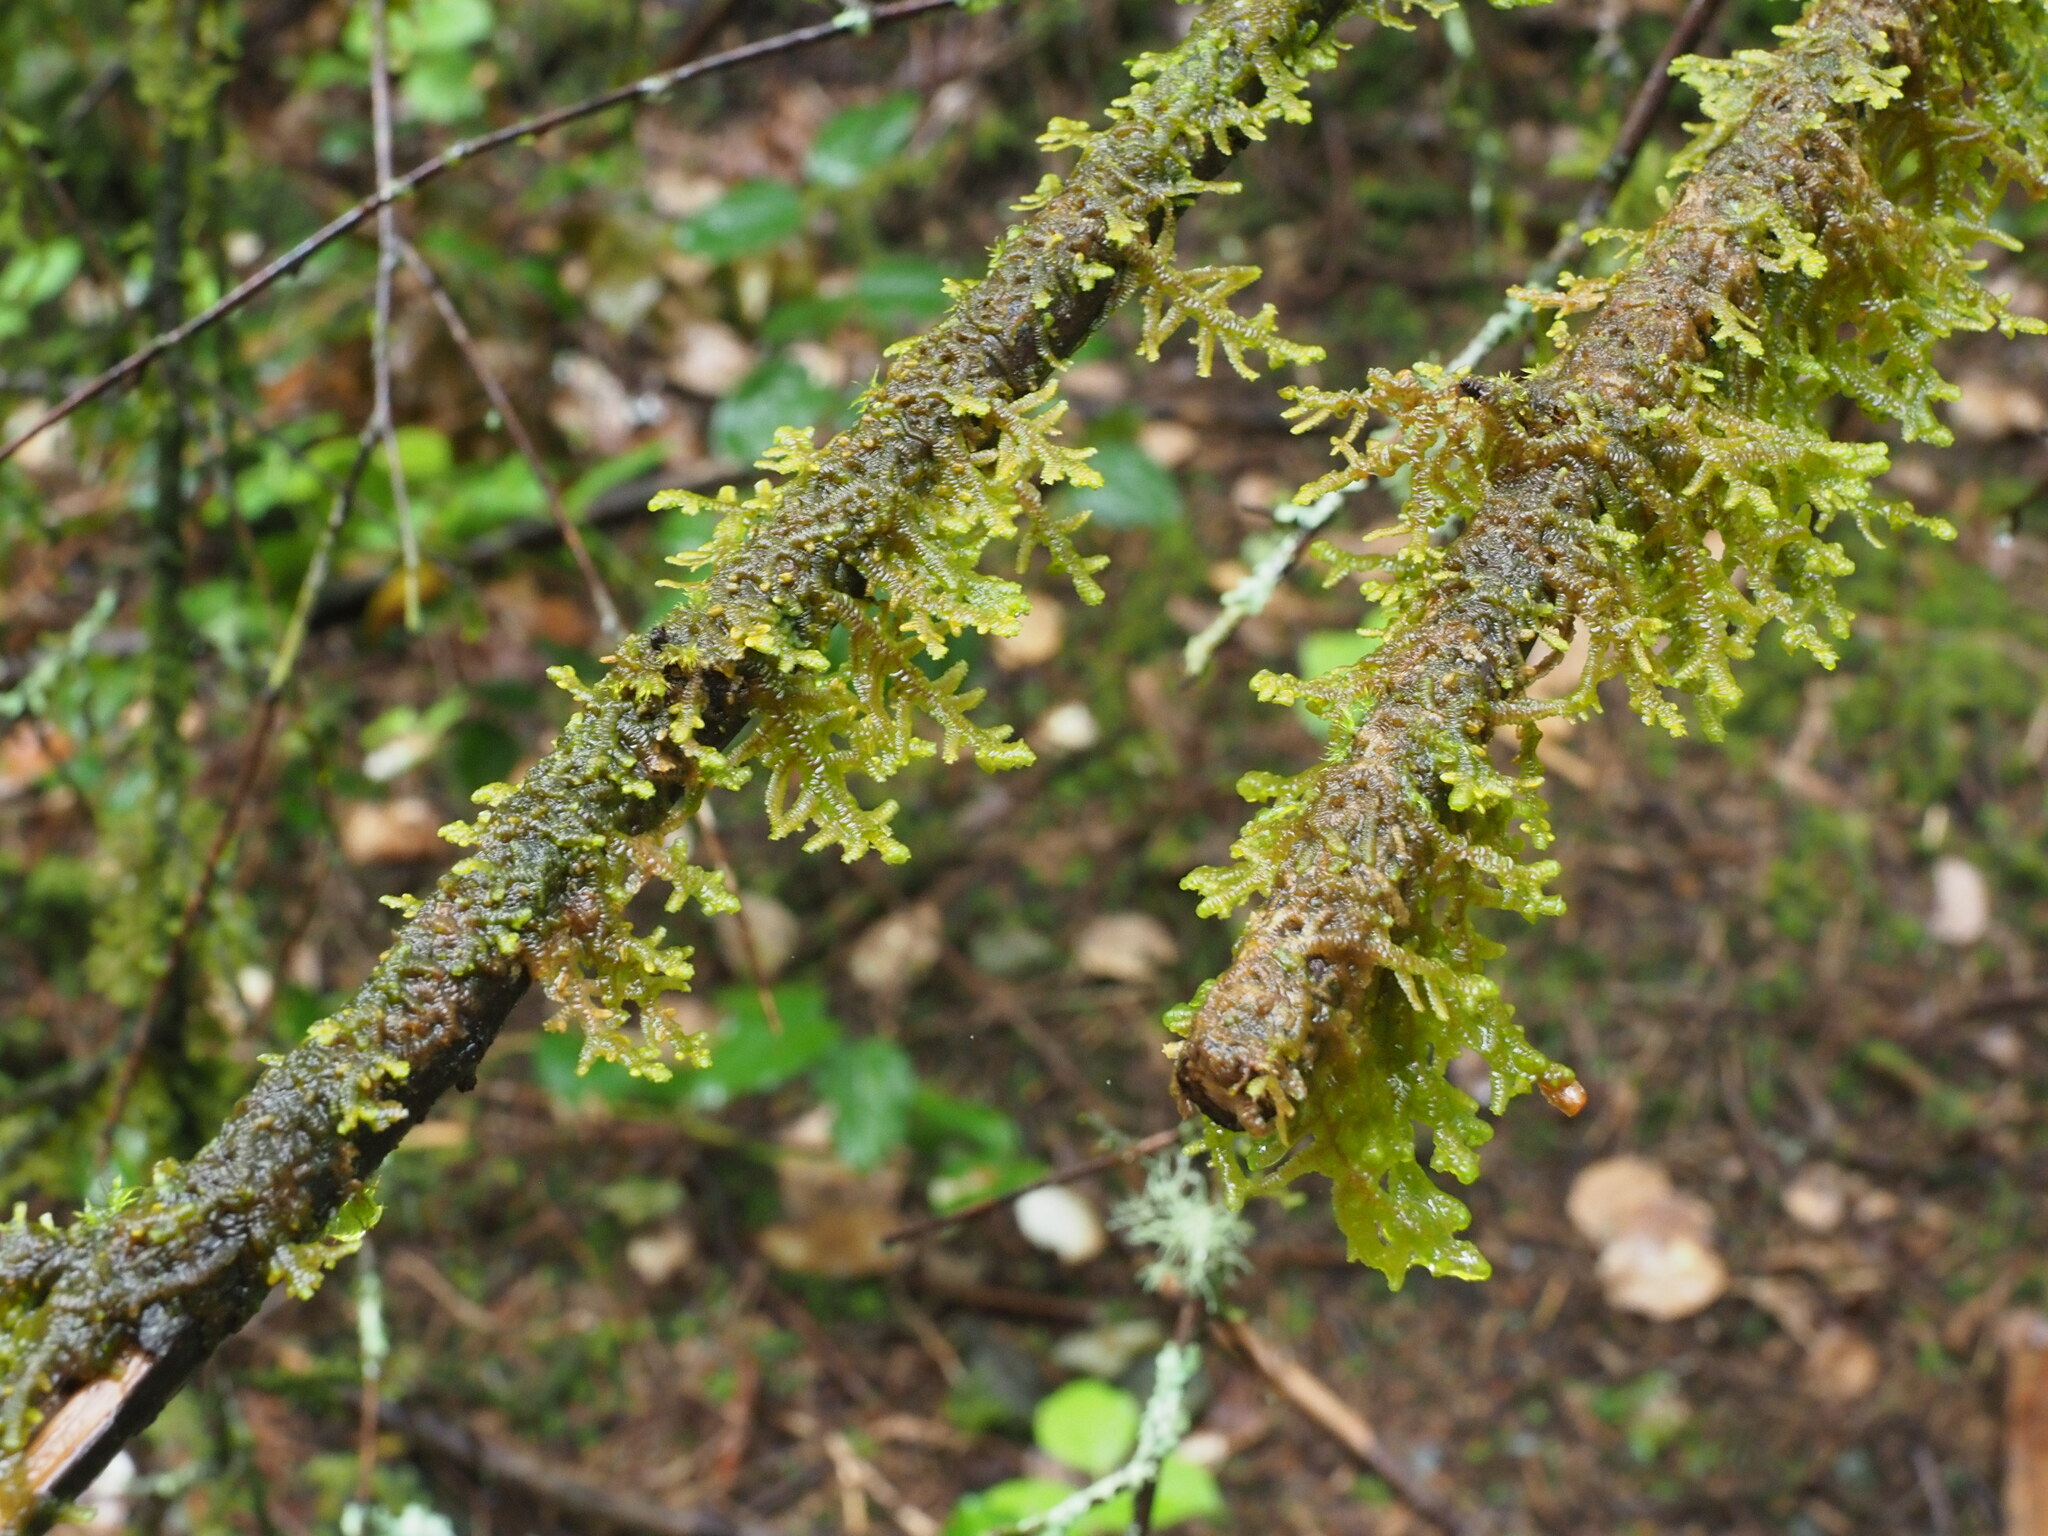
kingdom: Plantae
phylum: Marchantiophyta
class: Jungermanniopsida
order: Porellales
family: Porellaceae
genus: Porella
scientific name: Porella navicularis
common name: Tree ruffle liverwort
